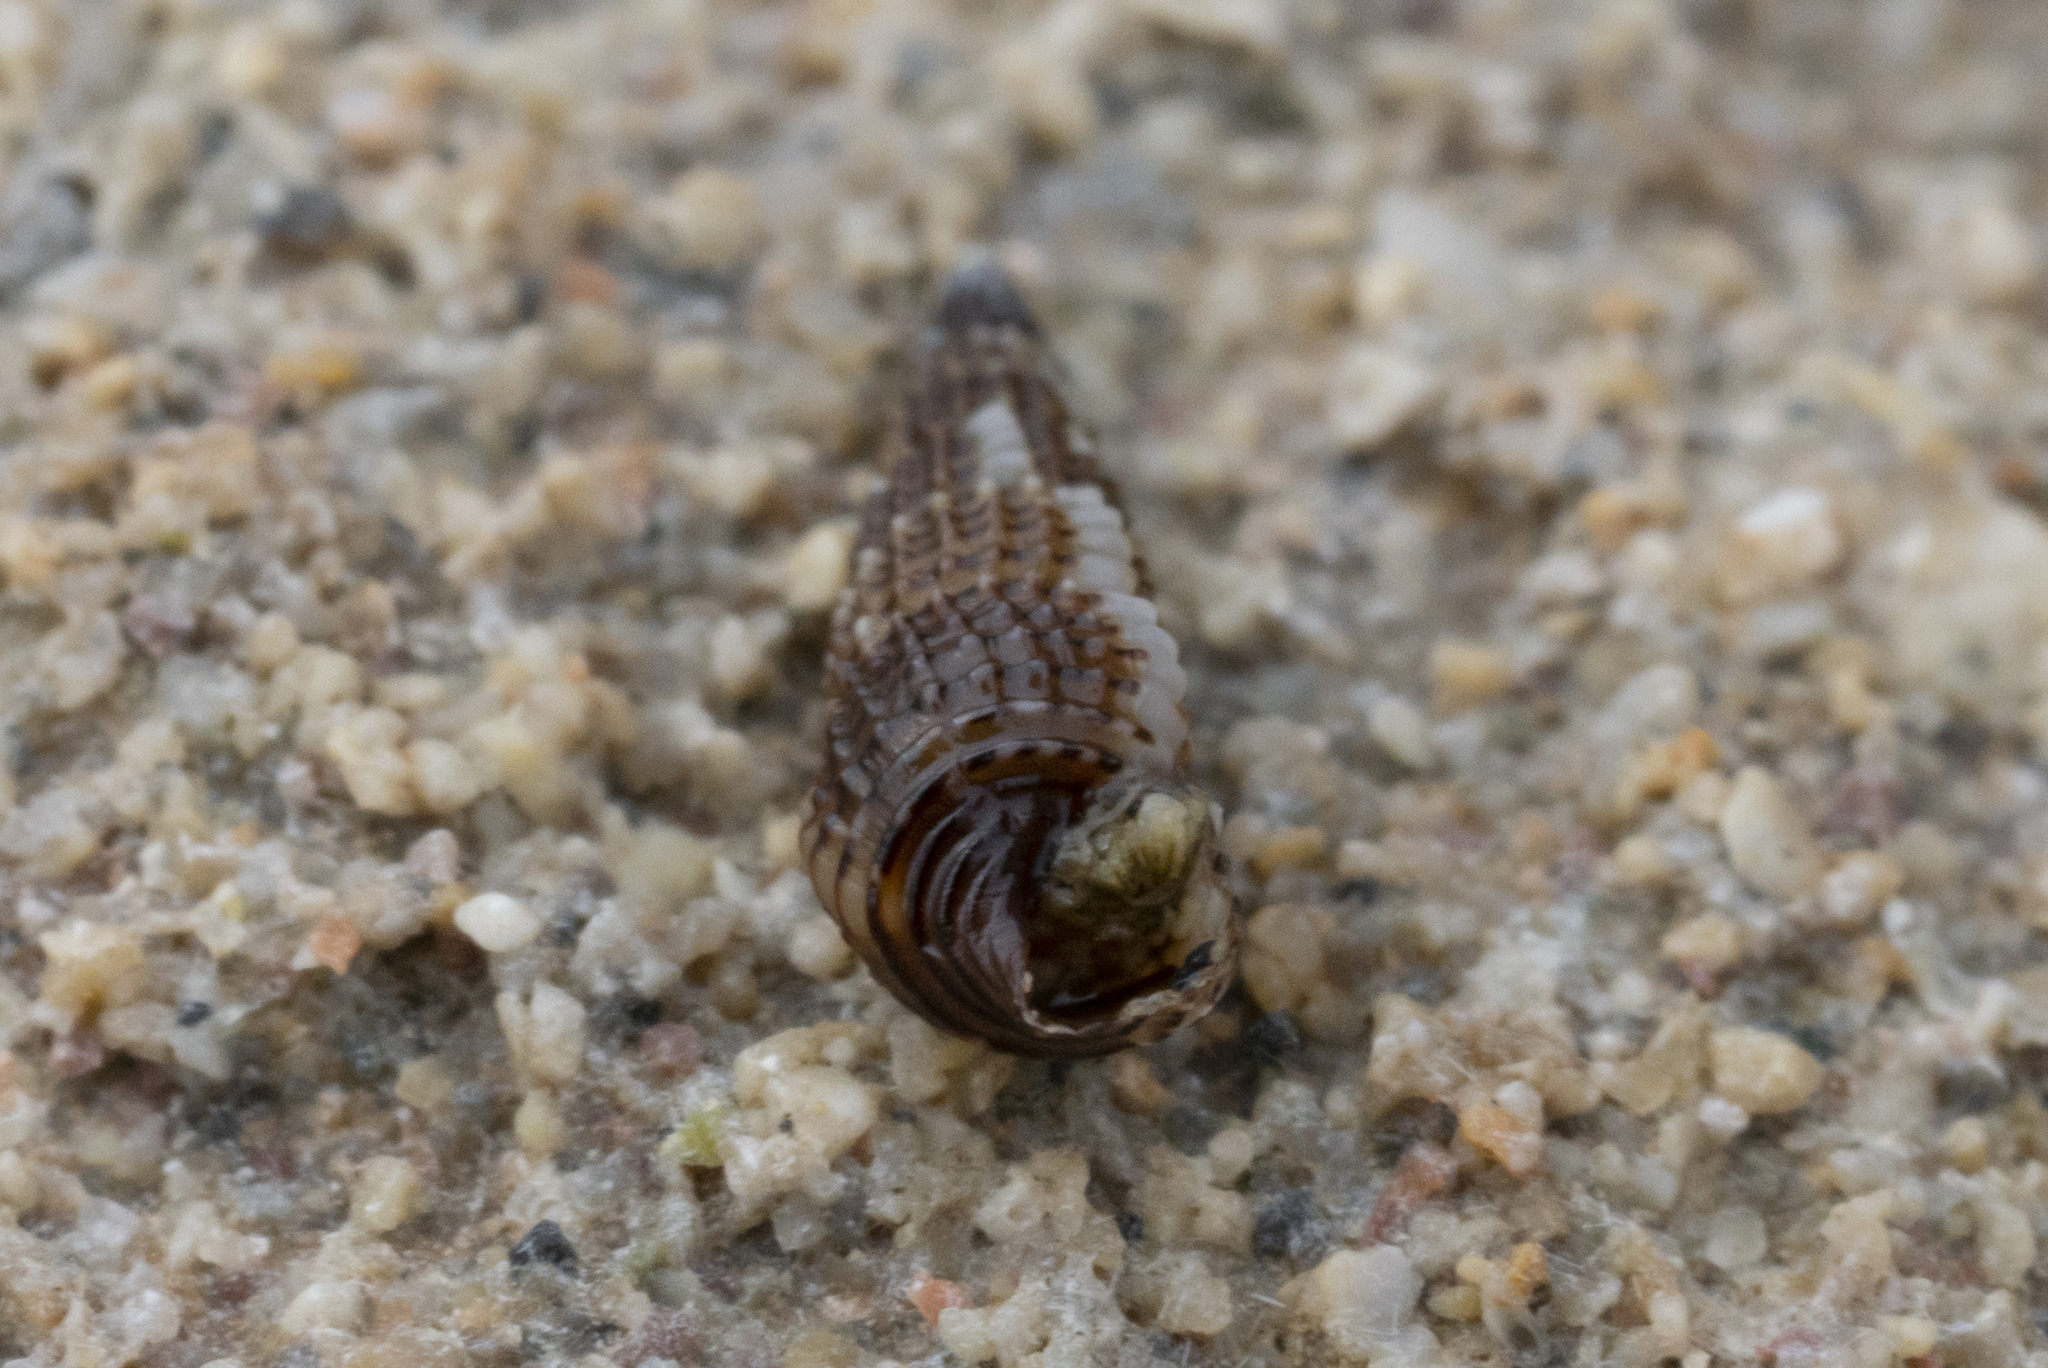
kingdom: Animalia
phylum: Mollusca
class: Gastropoda
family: Cerithiidae
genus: Bittium
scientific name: Bittium latreillii
